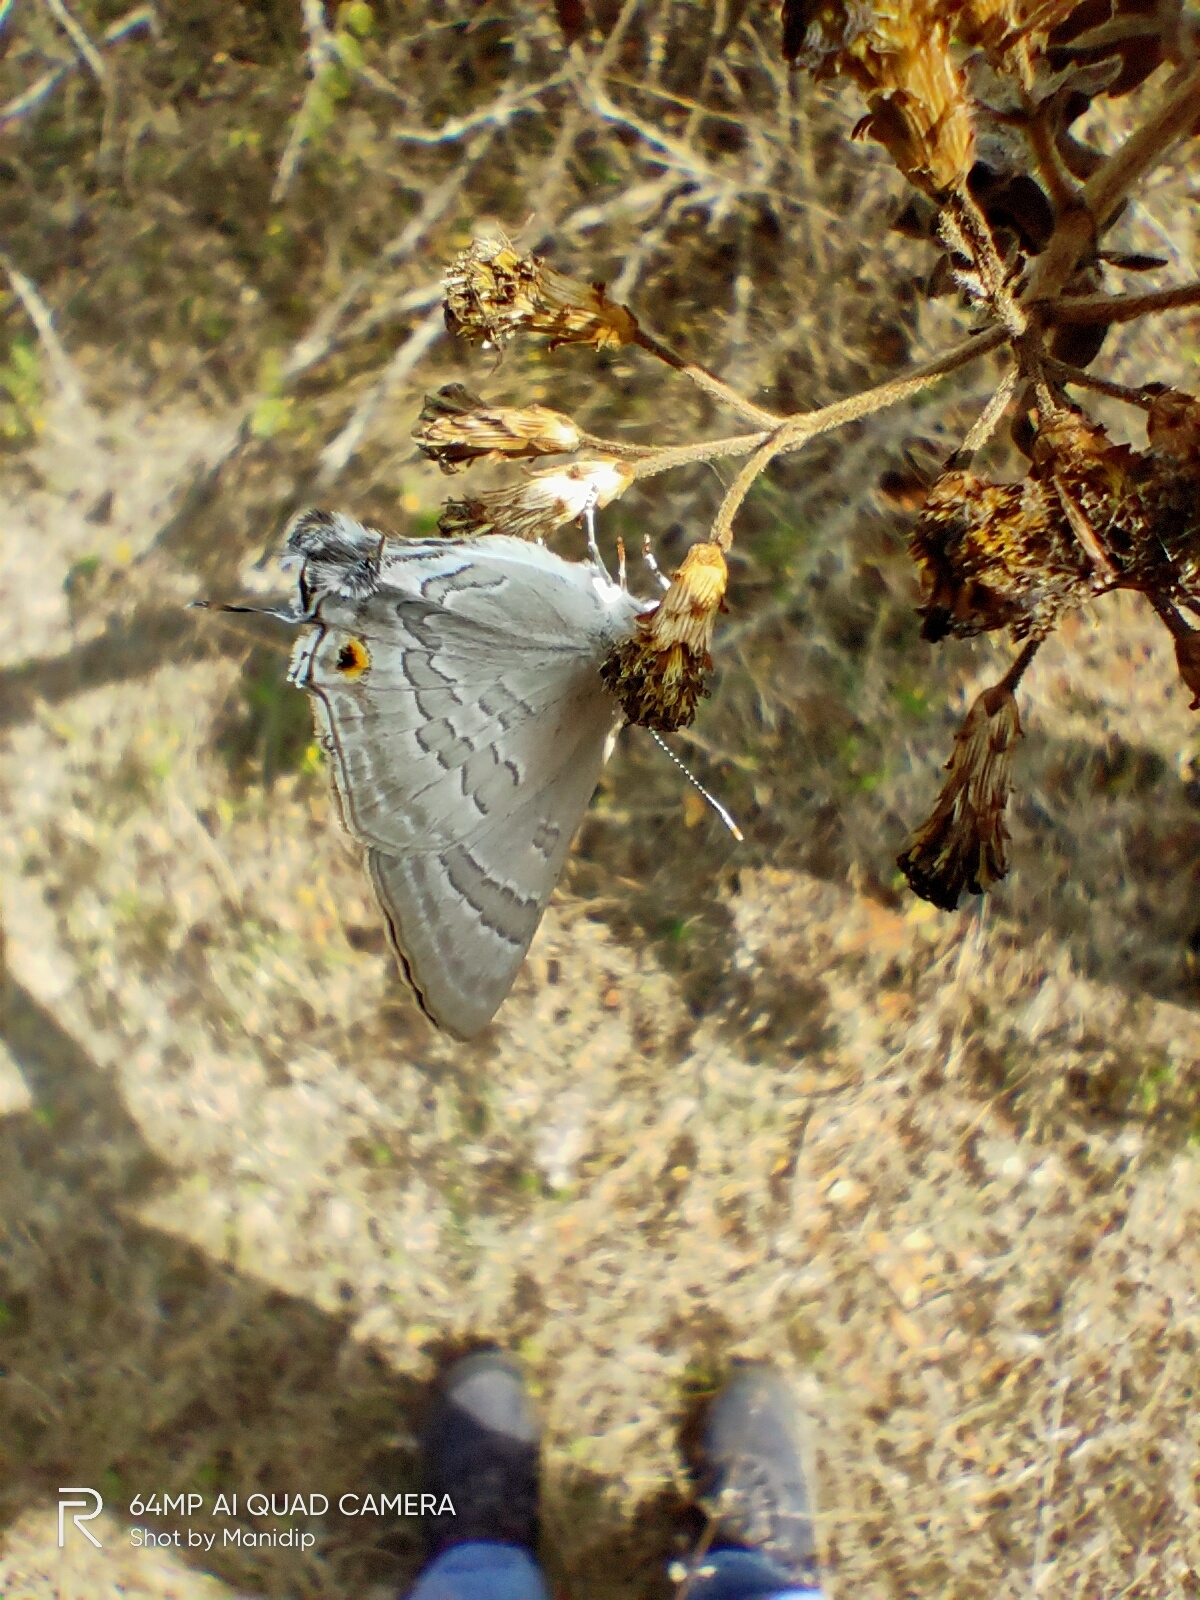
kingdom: Animalia
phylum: Arthropoda
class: Insecta
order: Lepidoptera
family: Lycaenidae
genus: Deudorix
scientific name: Deudorix
